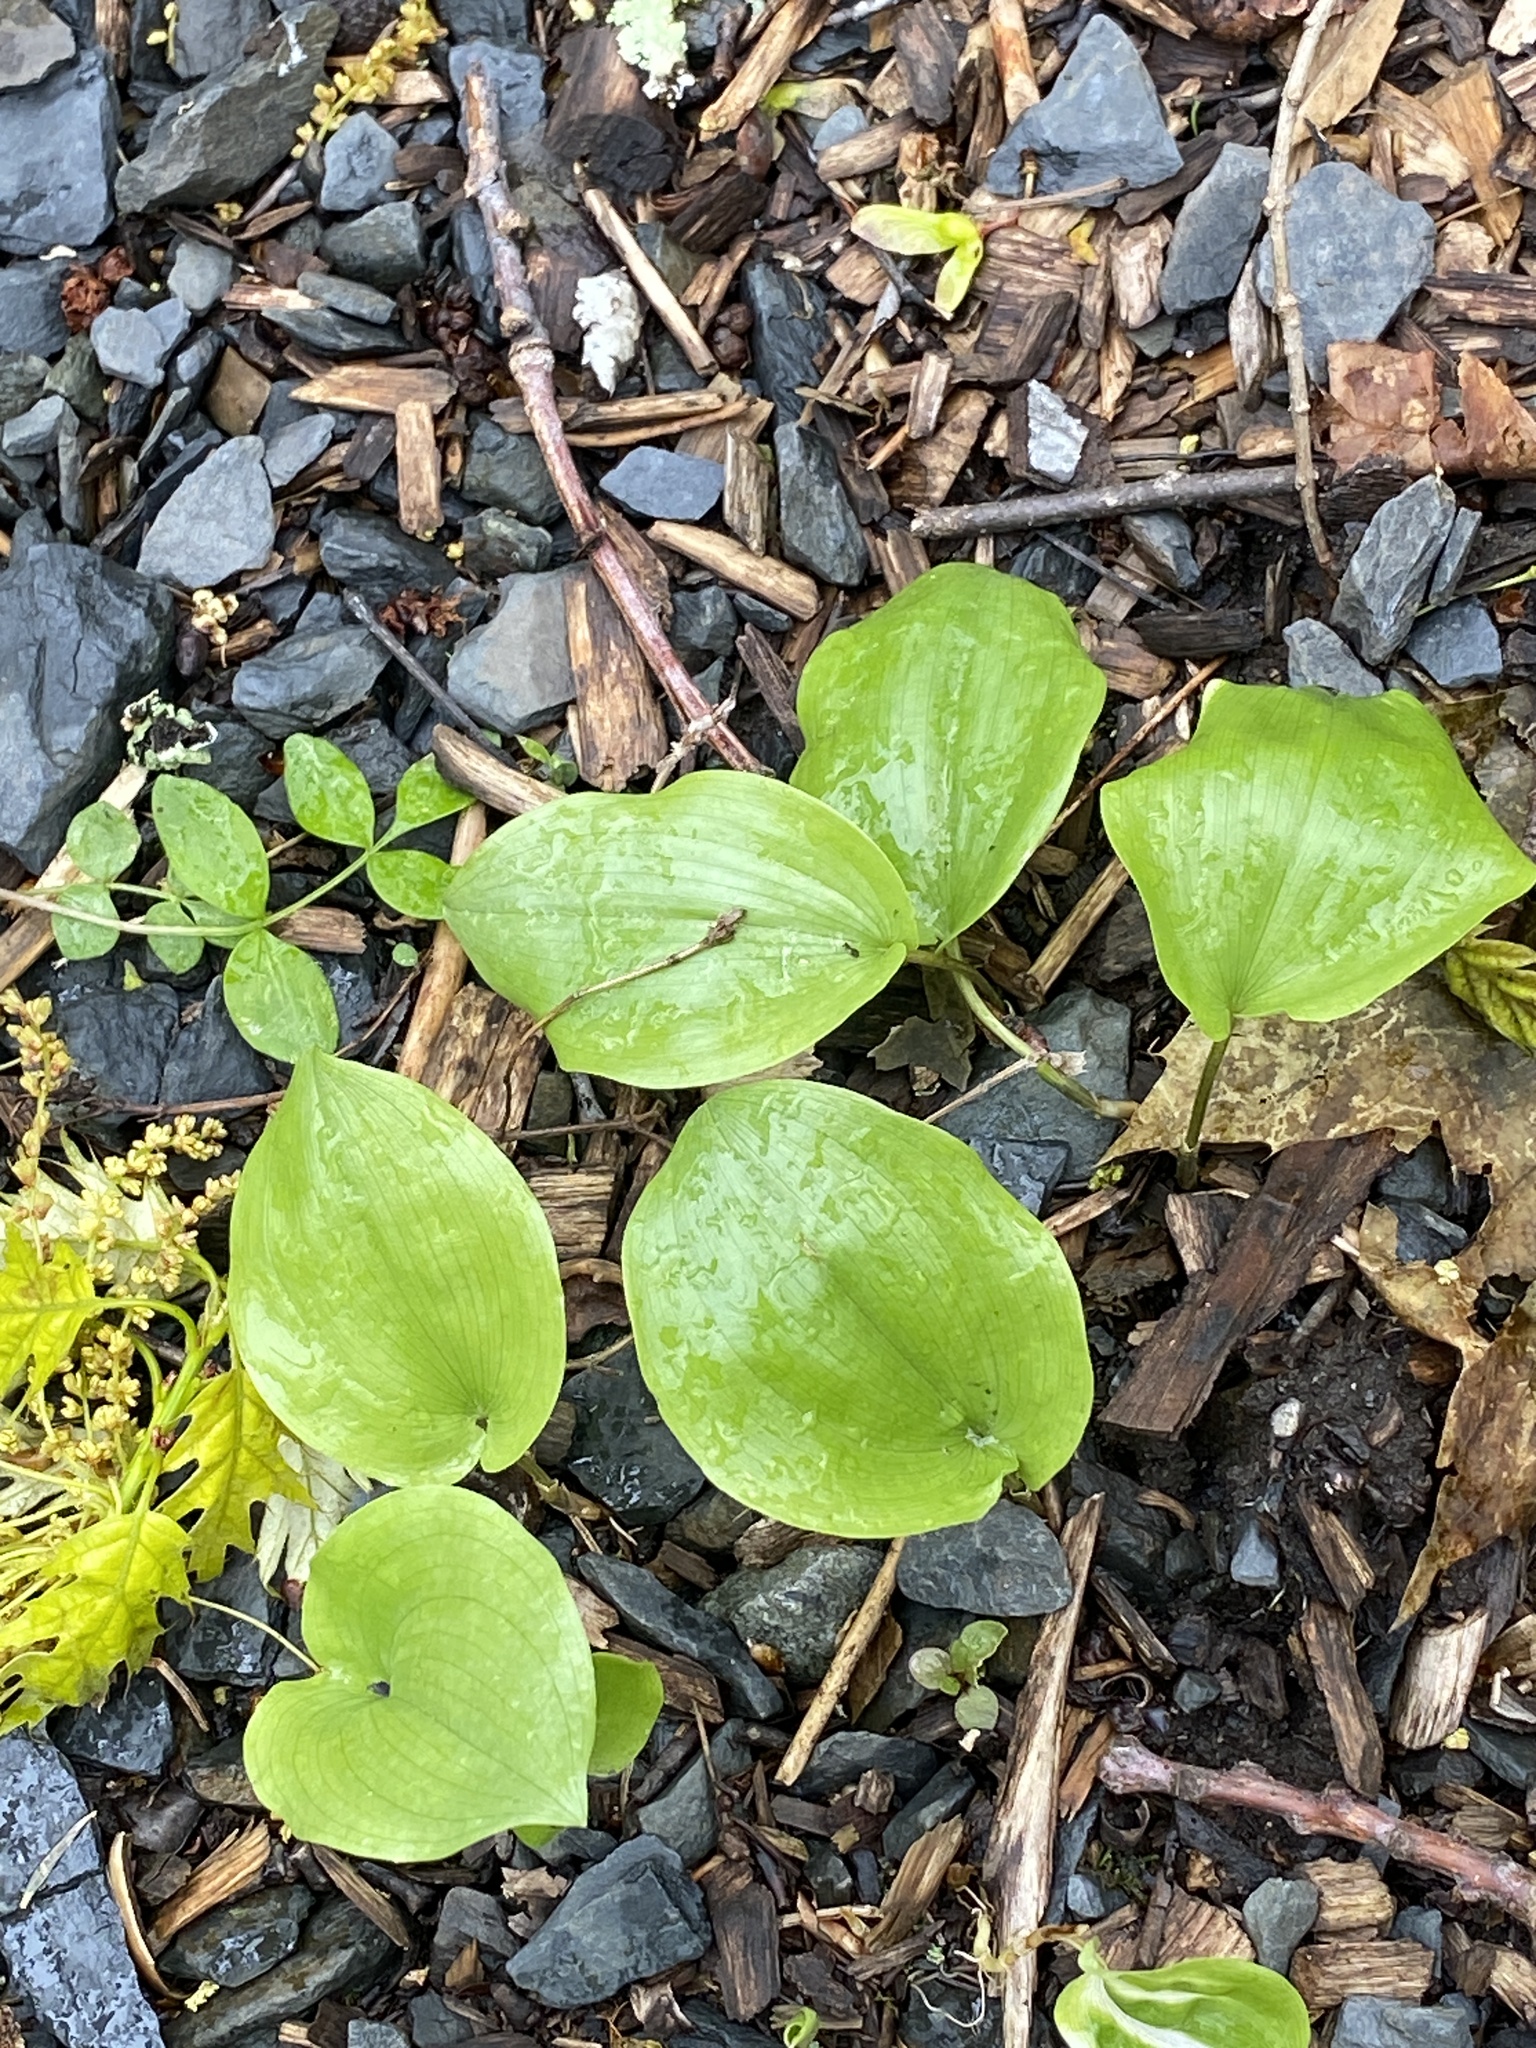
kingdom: Plantae
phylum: Tracheophyta
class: Liliopsida
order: Asparagales
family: Asparagaceae
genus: Maianthemum
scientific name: Maianthemum canadense
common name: False lily-of-the-valley
